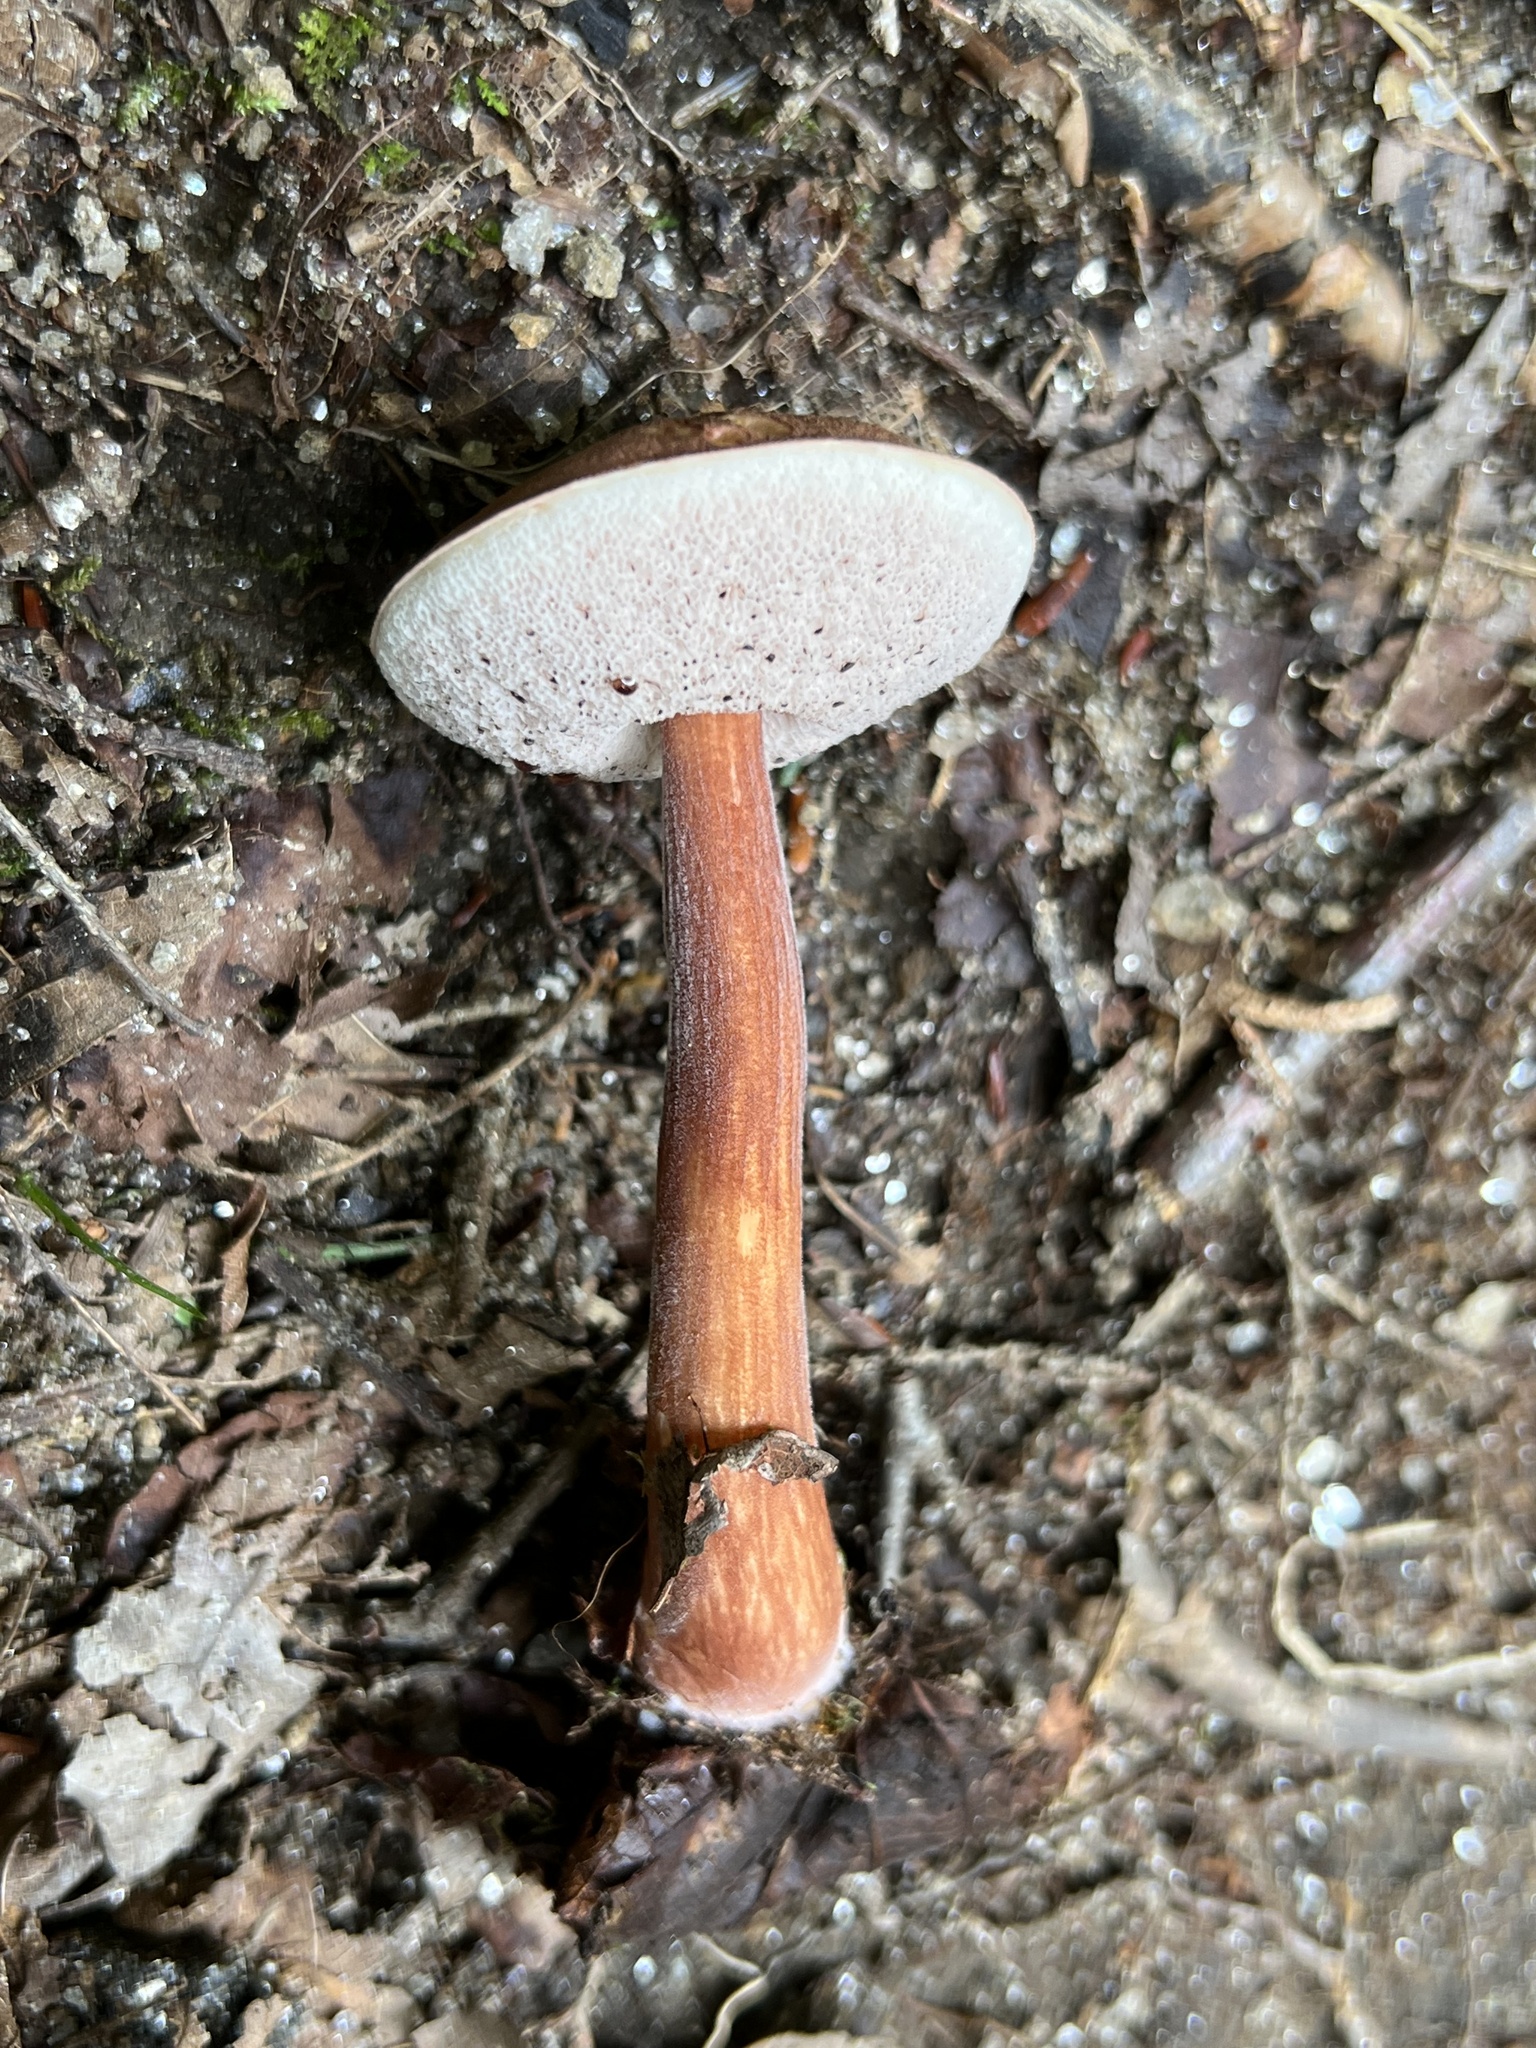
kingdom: Fungi
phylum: Basidiomycota
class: Agaricomycetes
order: Boletales
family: Boletaceae
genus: Austroboletus
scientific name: Austroboletus gracilis
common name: Graceful bolete
